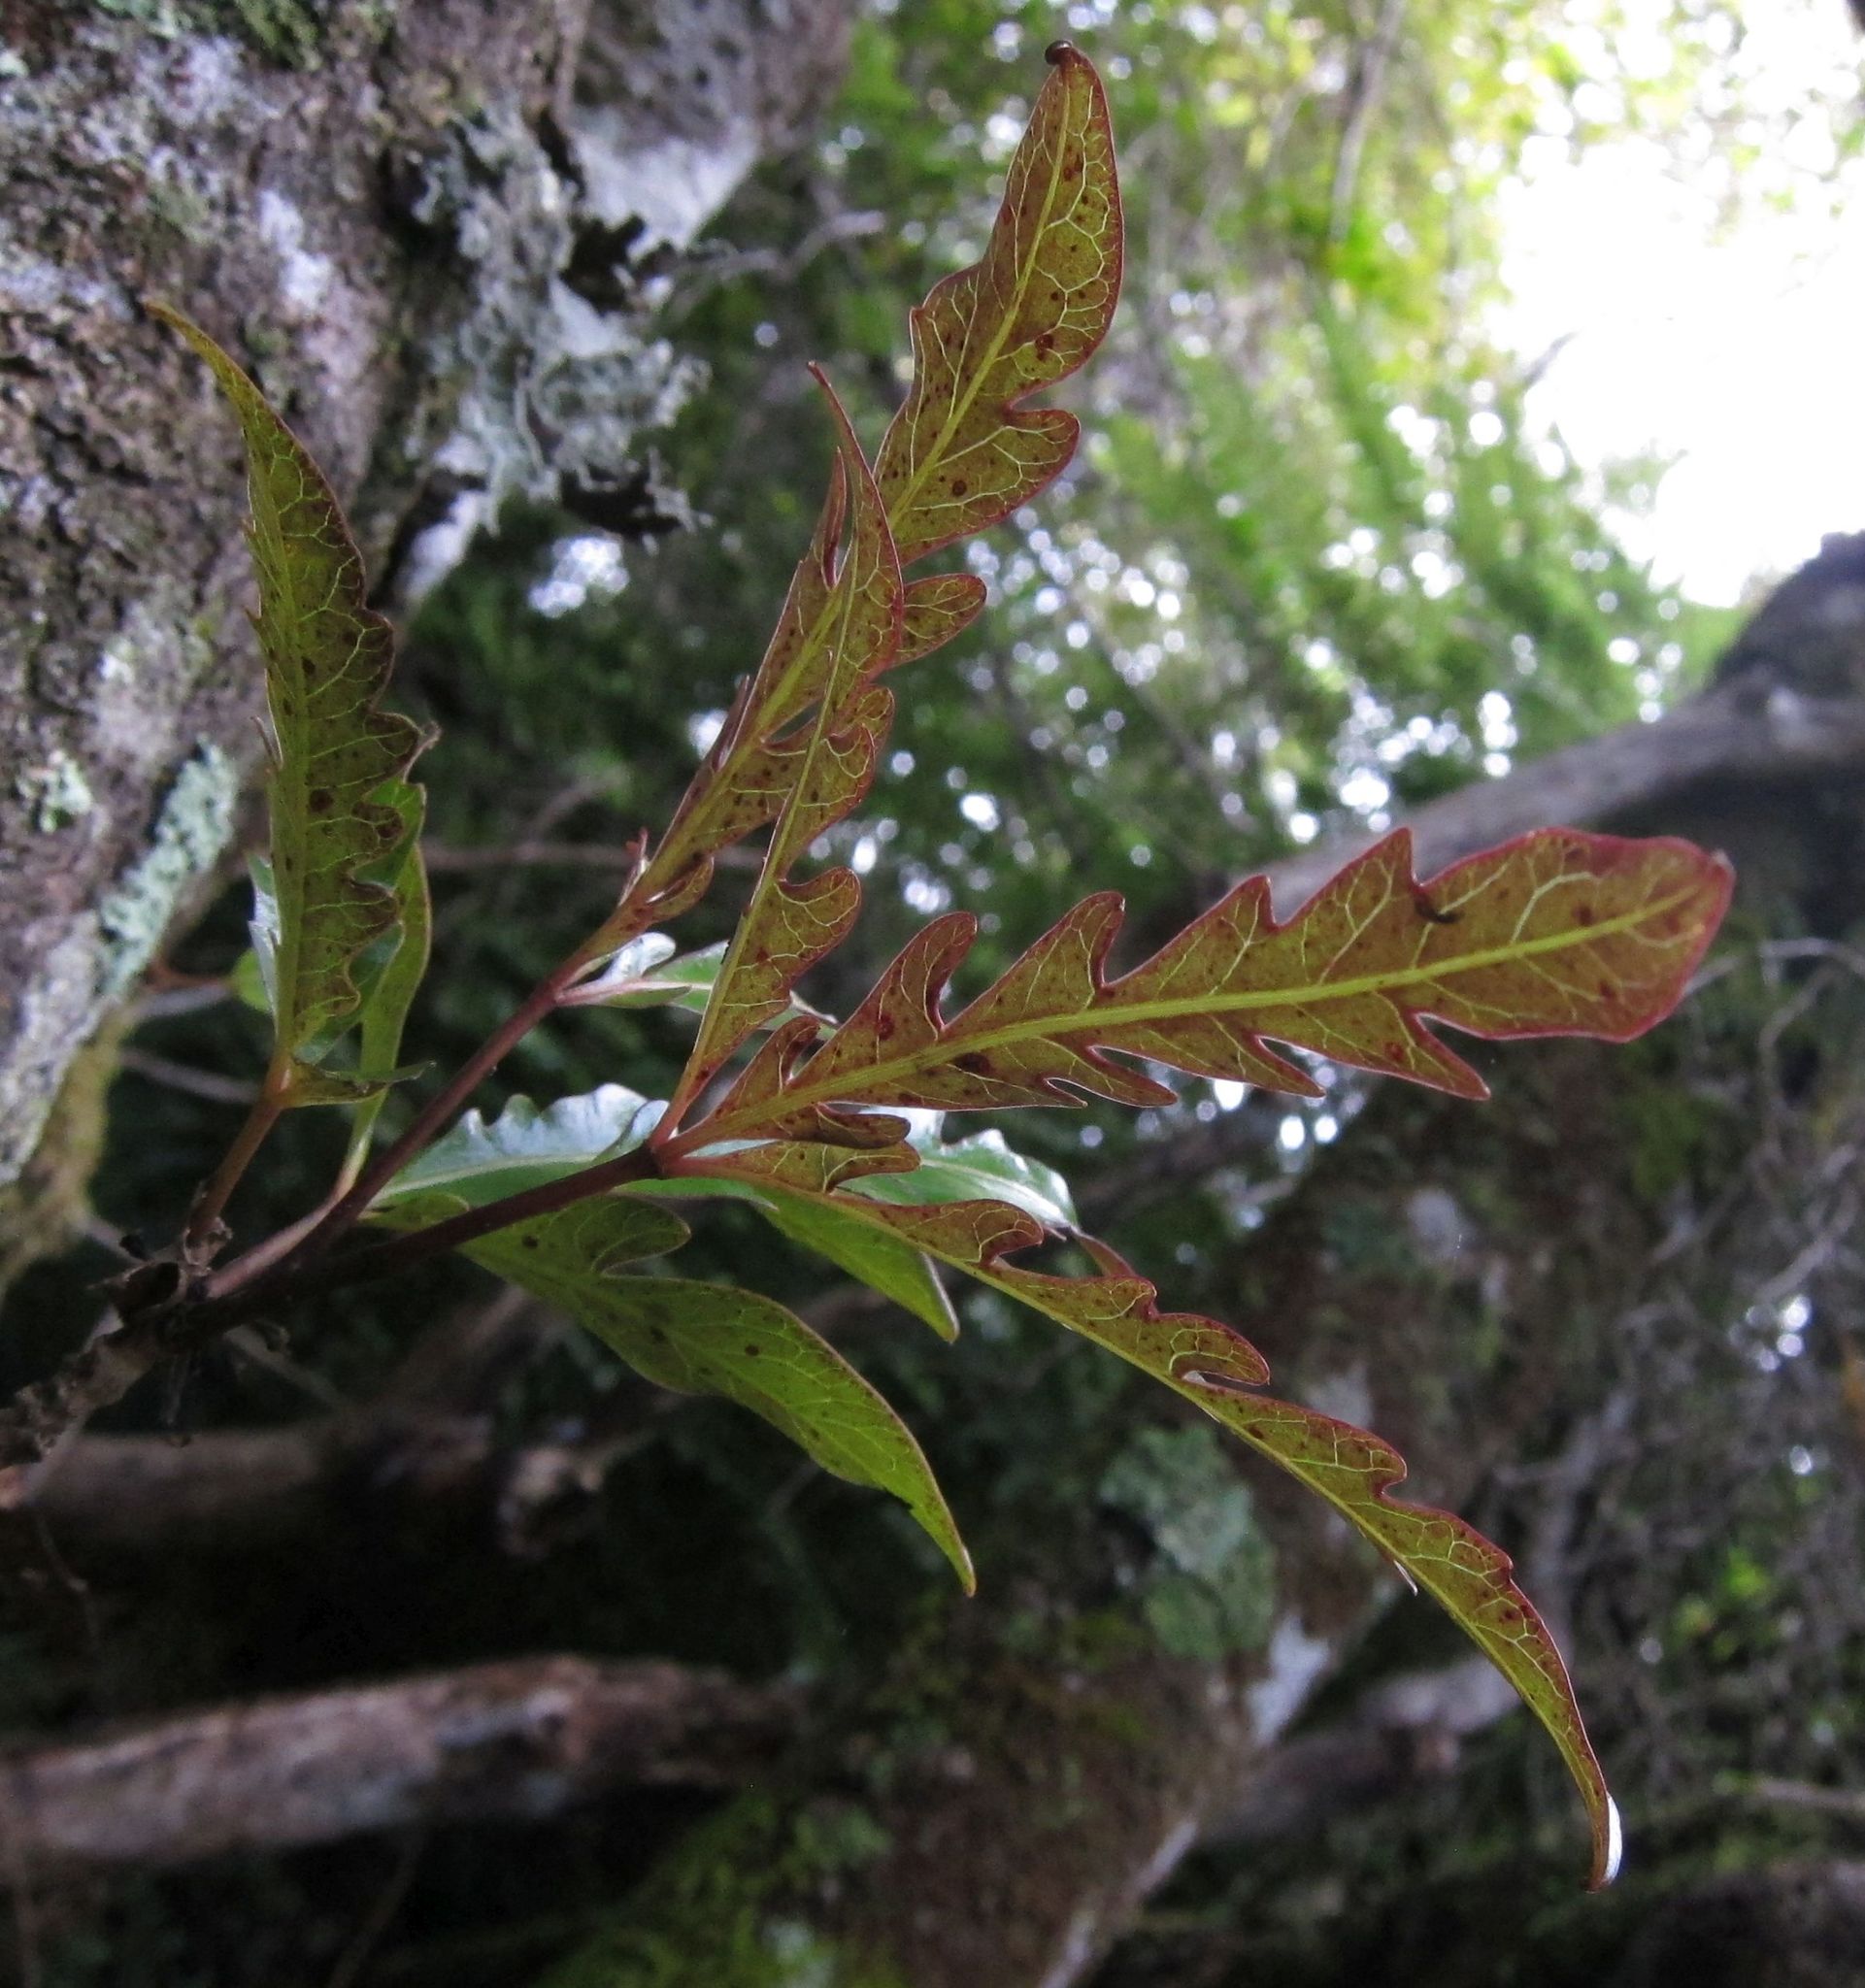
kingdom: Plantae
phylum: Tracheophyta
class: Magnoliopsida
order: Apiales
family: Araliaceae
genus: Raukaua
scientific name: Raukaua simplex
